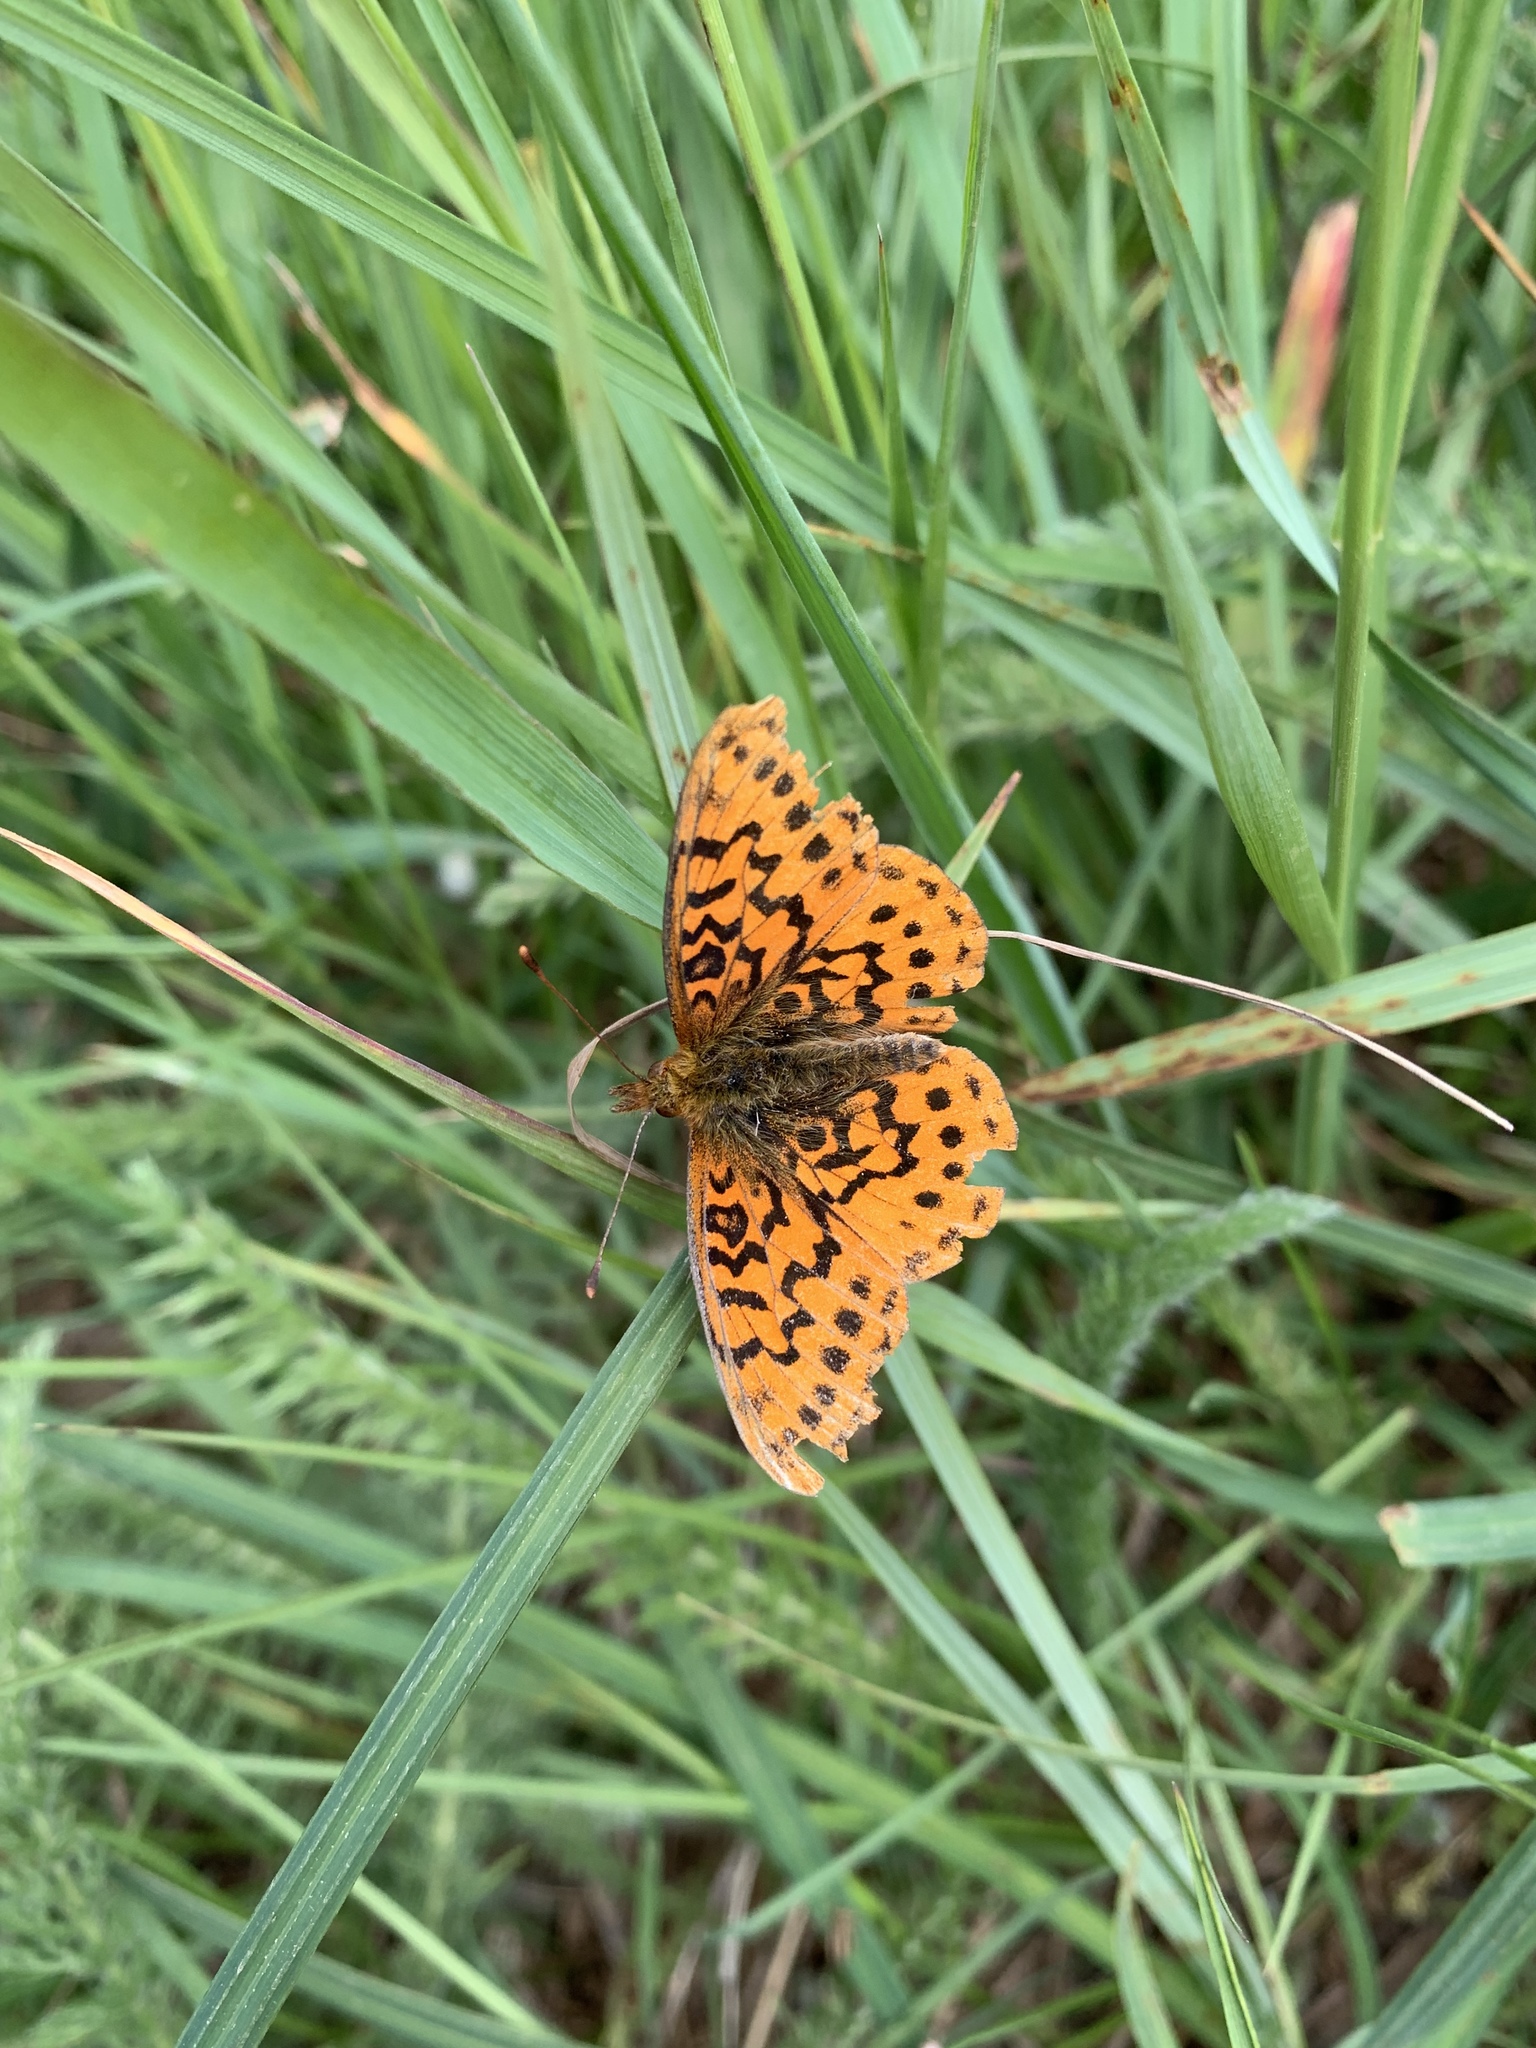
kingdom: Animalia
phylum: Arthropoda
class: Insecta
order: Lepidoptera
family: Nymphalidae
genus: Boloria
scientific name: Boloria epithore
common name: Pacific fritillary
